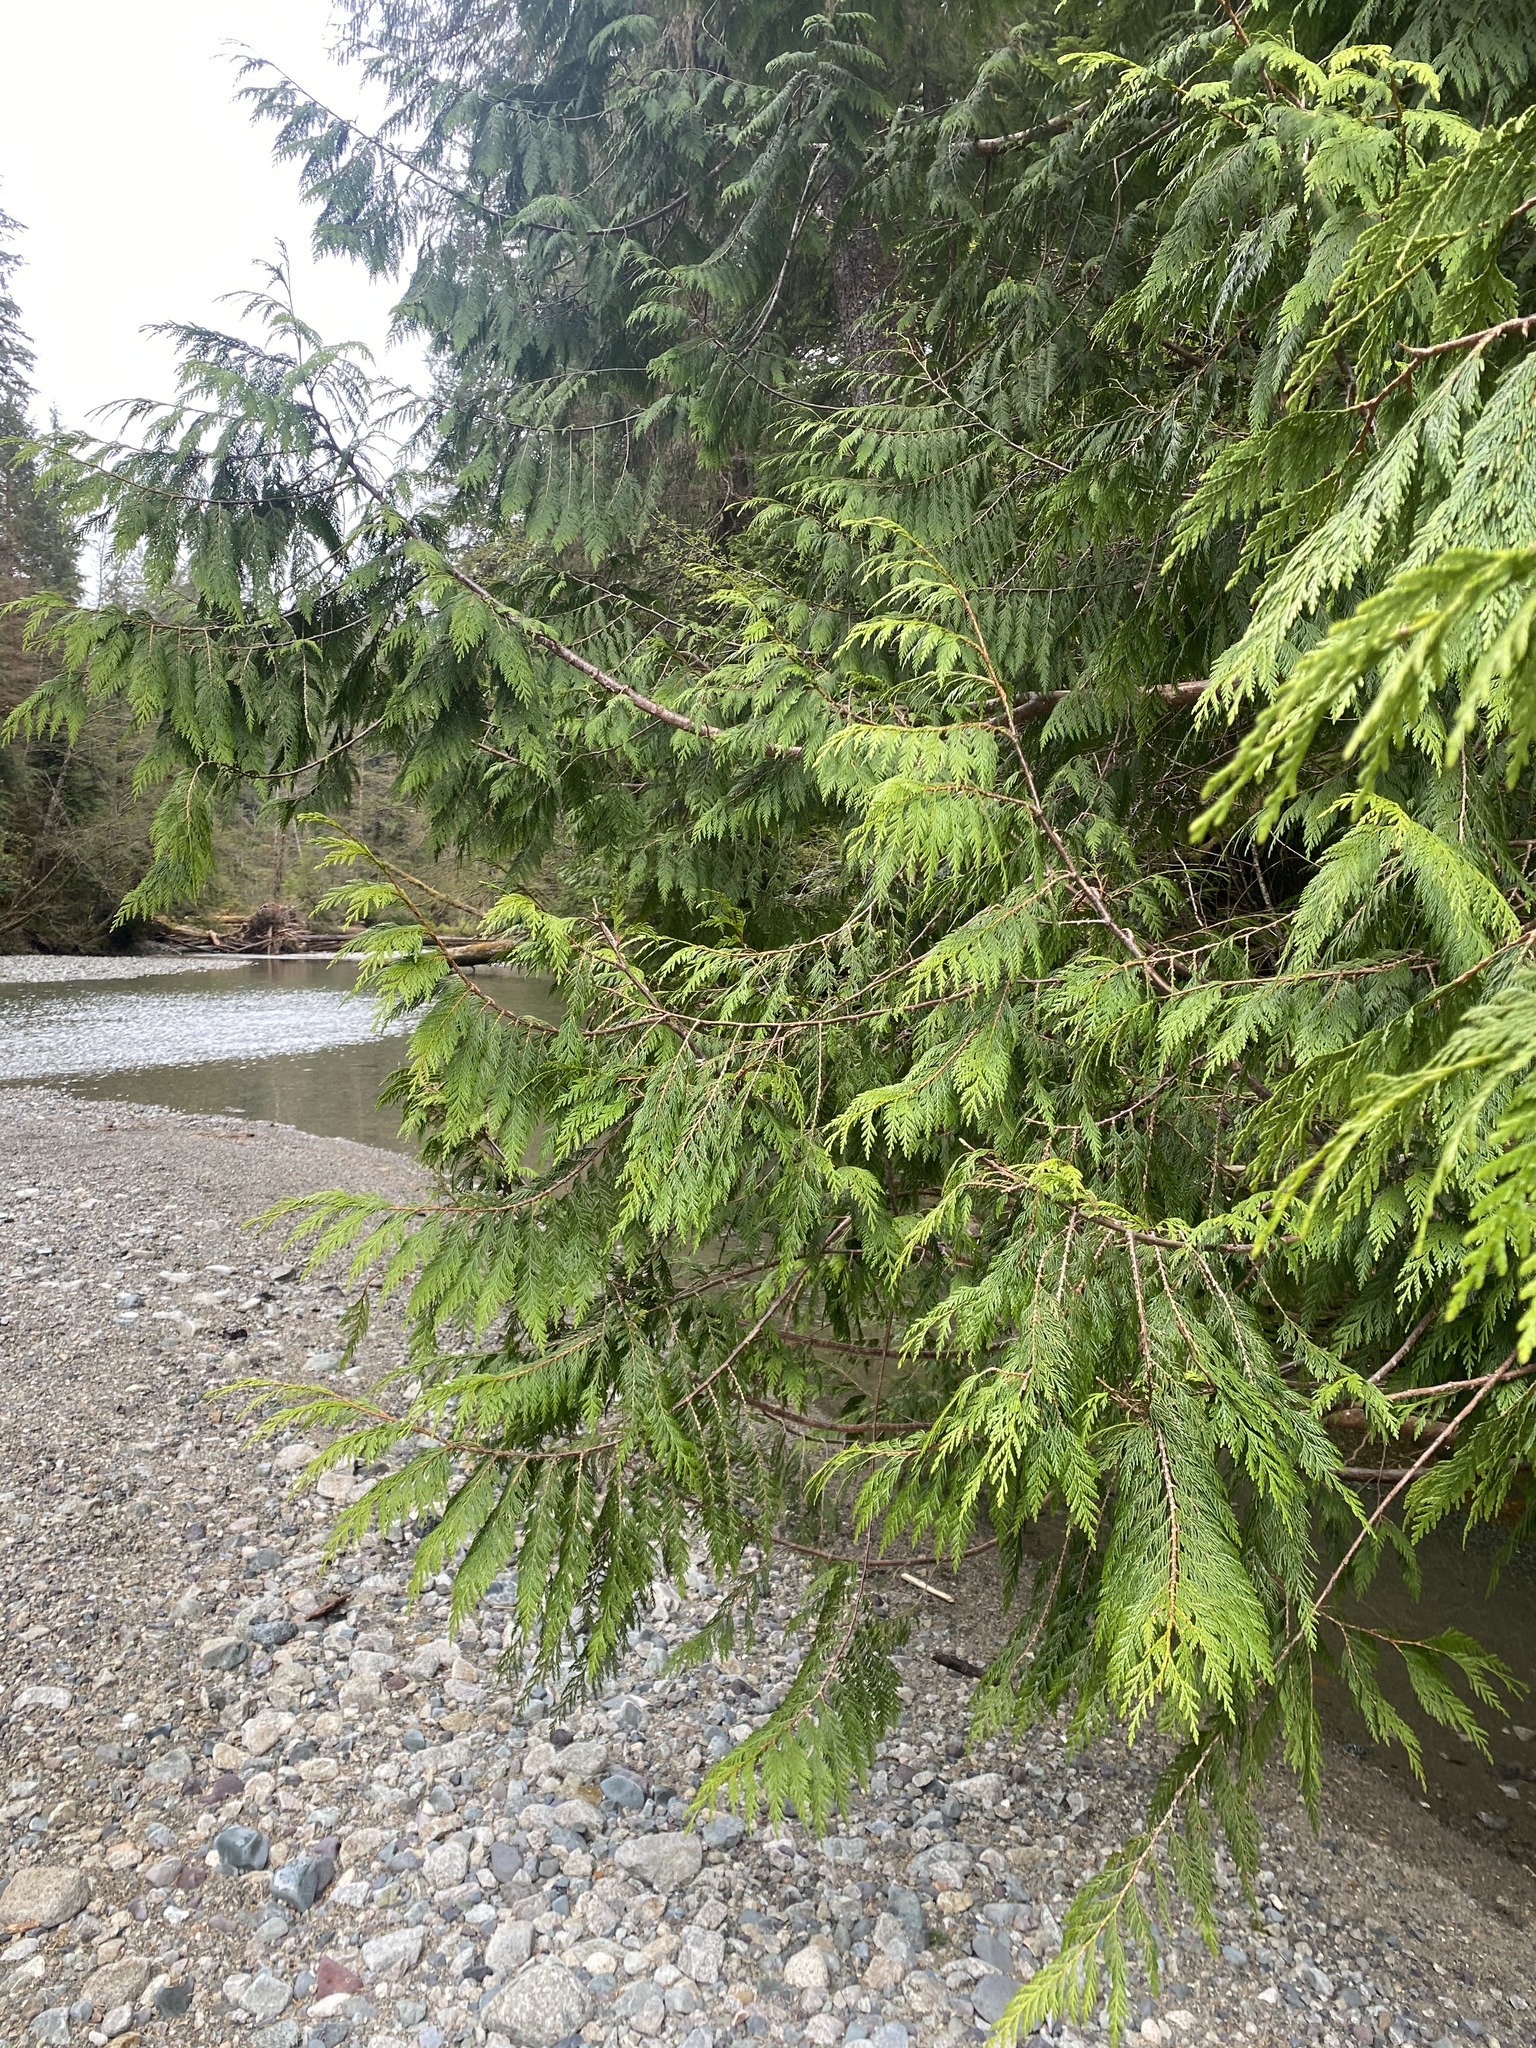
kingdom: Plantae
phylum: Tracheophyta
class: Pinopsida
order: Pinales
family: Cupressaceae
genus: Thuja
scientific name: Thuja plicata
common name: Western red-cedar
